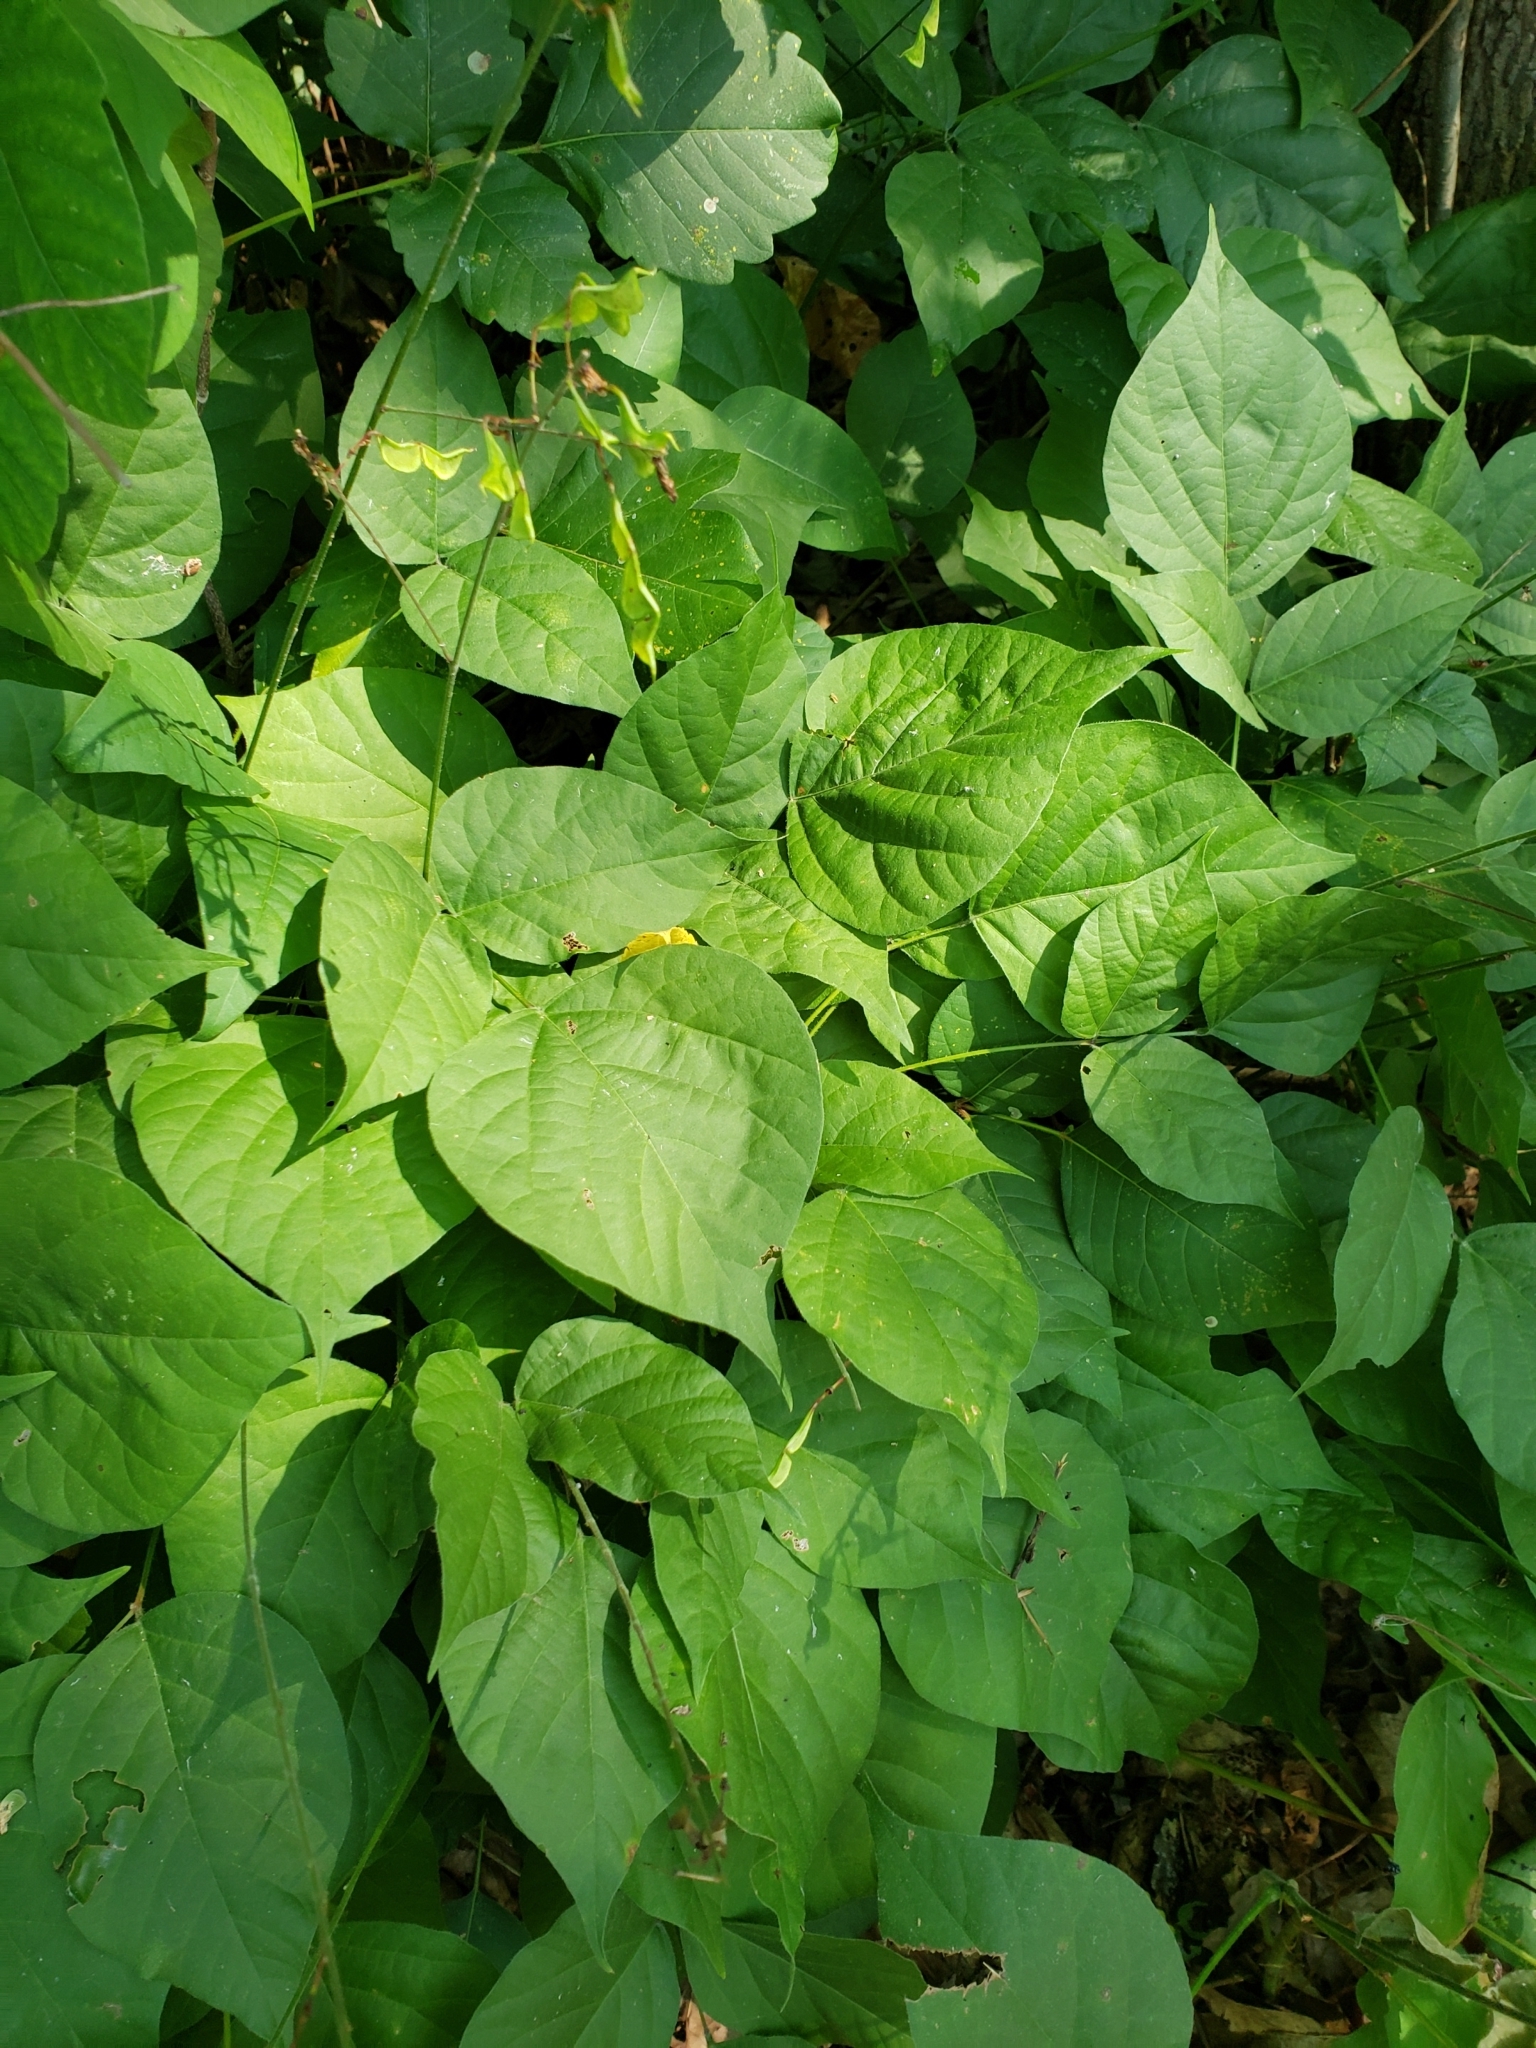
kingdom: Plantae
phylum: Tracheophyta
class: Magnoliopsida
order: Fabales
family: Fabaceae
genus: Hylodesmum
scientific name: Hylodesmum glutinosum
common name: Clustered-leaved tick-trefoil
